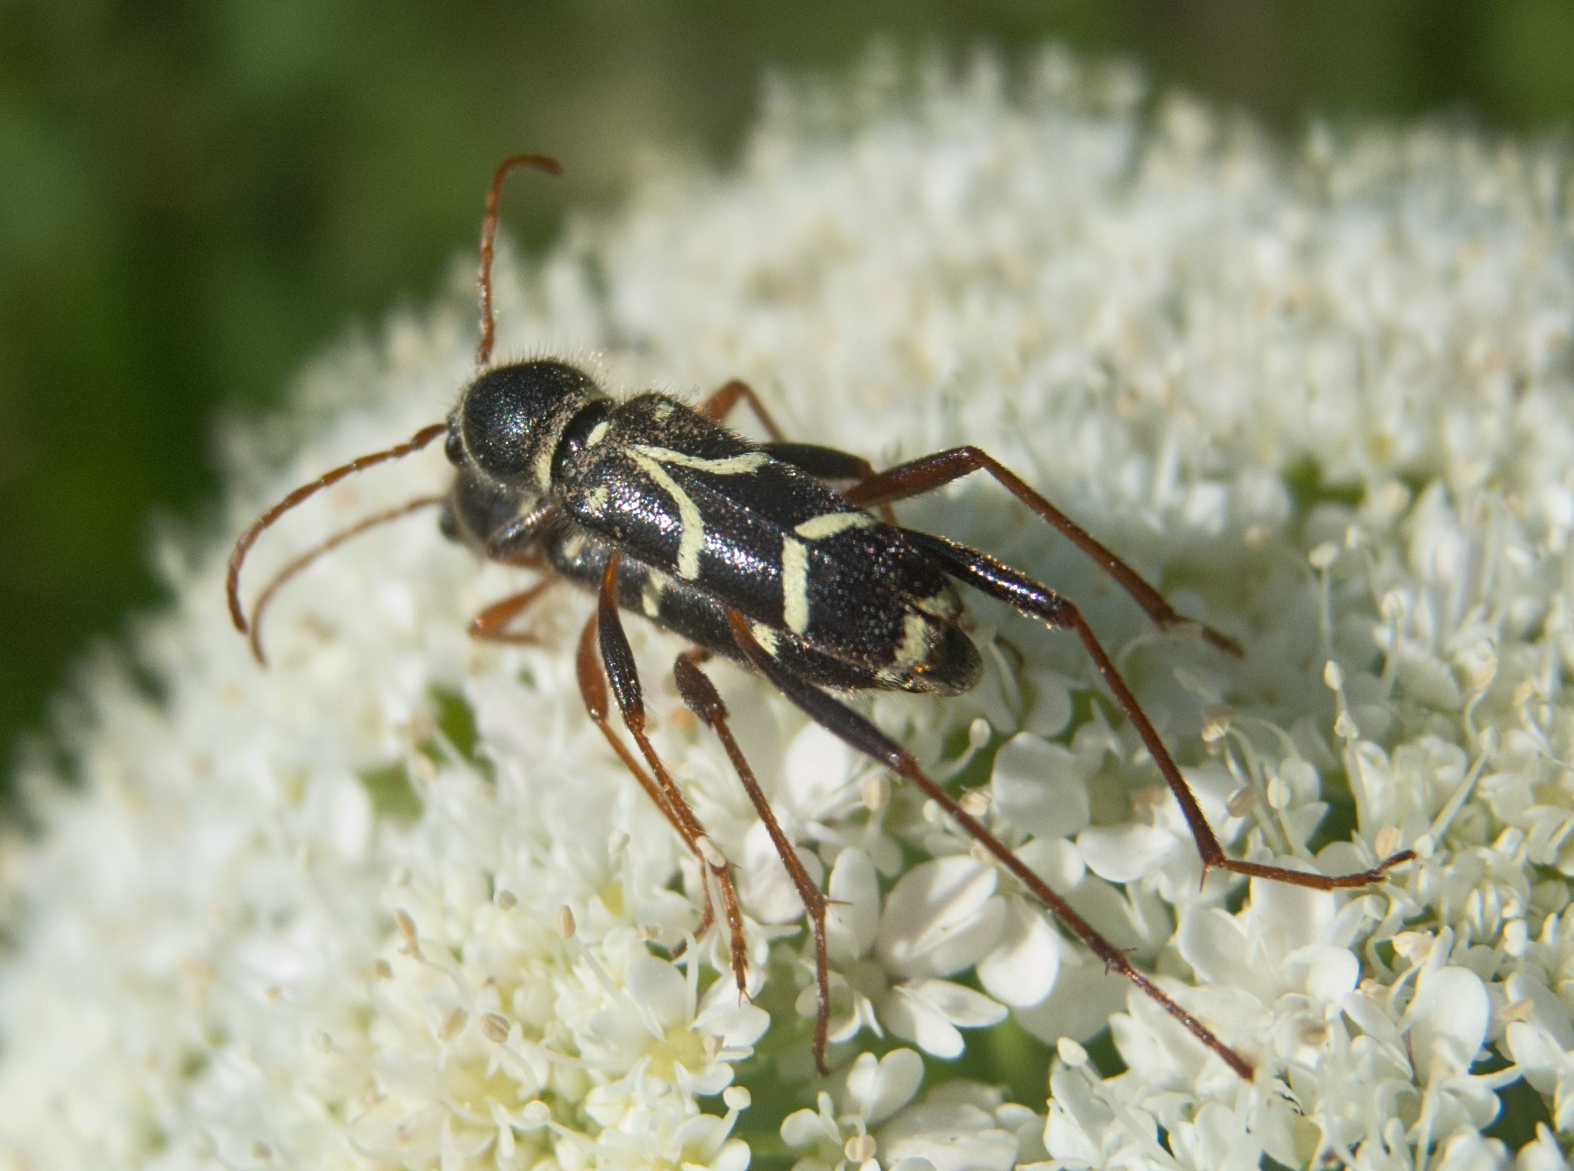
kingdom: Animalia
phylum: Arthropoda
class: Insecta
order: Coleoptera
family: Cerambycidae
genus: Clytus
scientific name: Clytus rhamni
